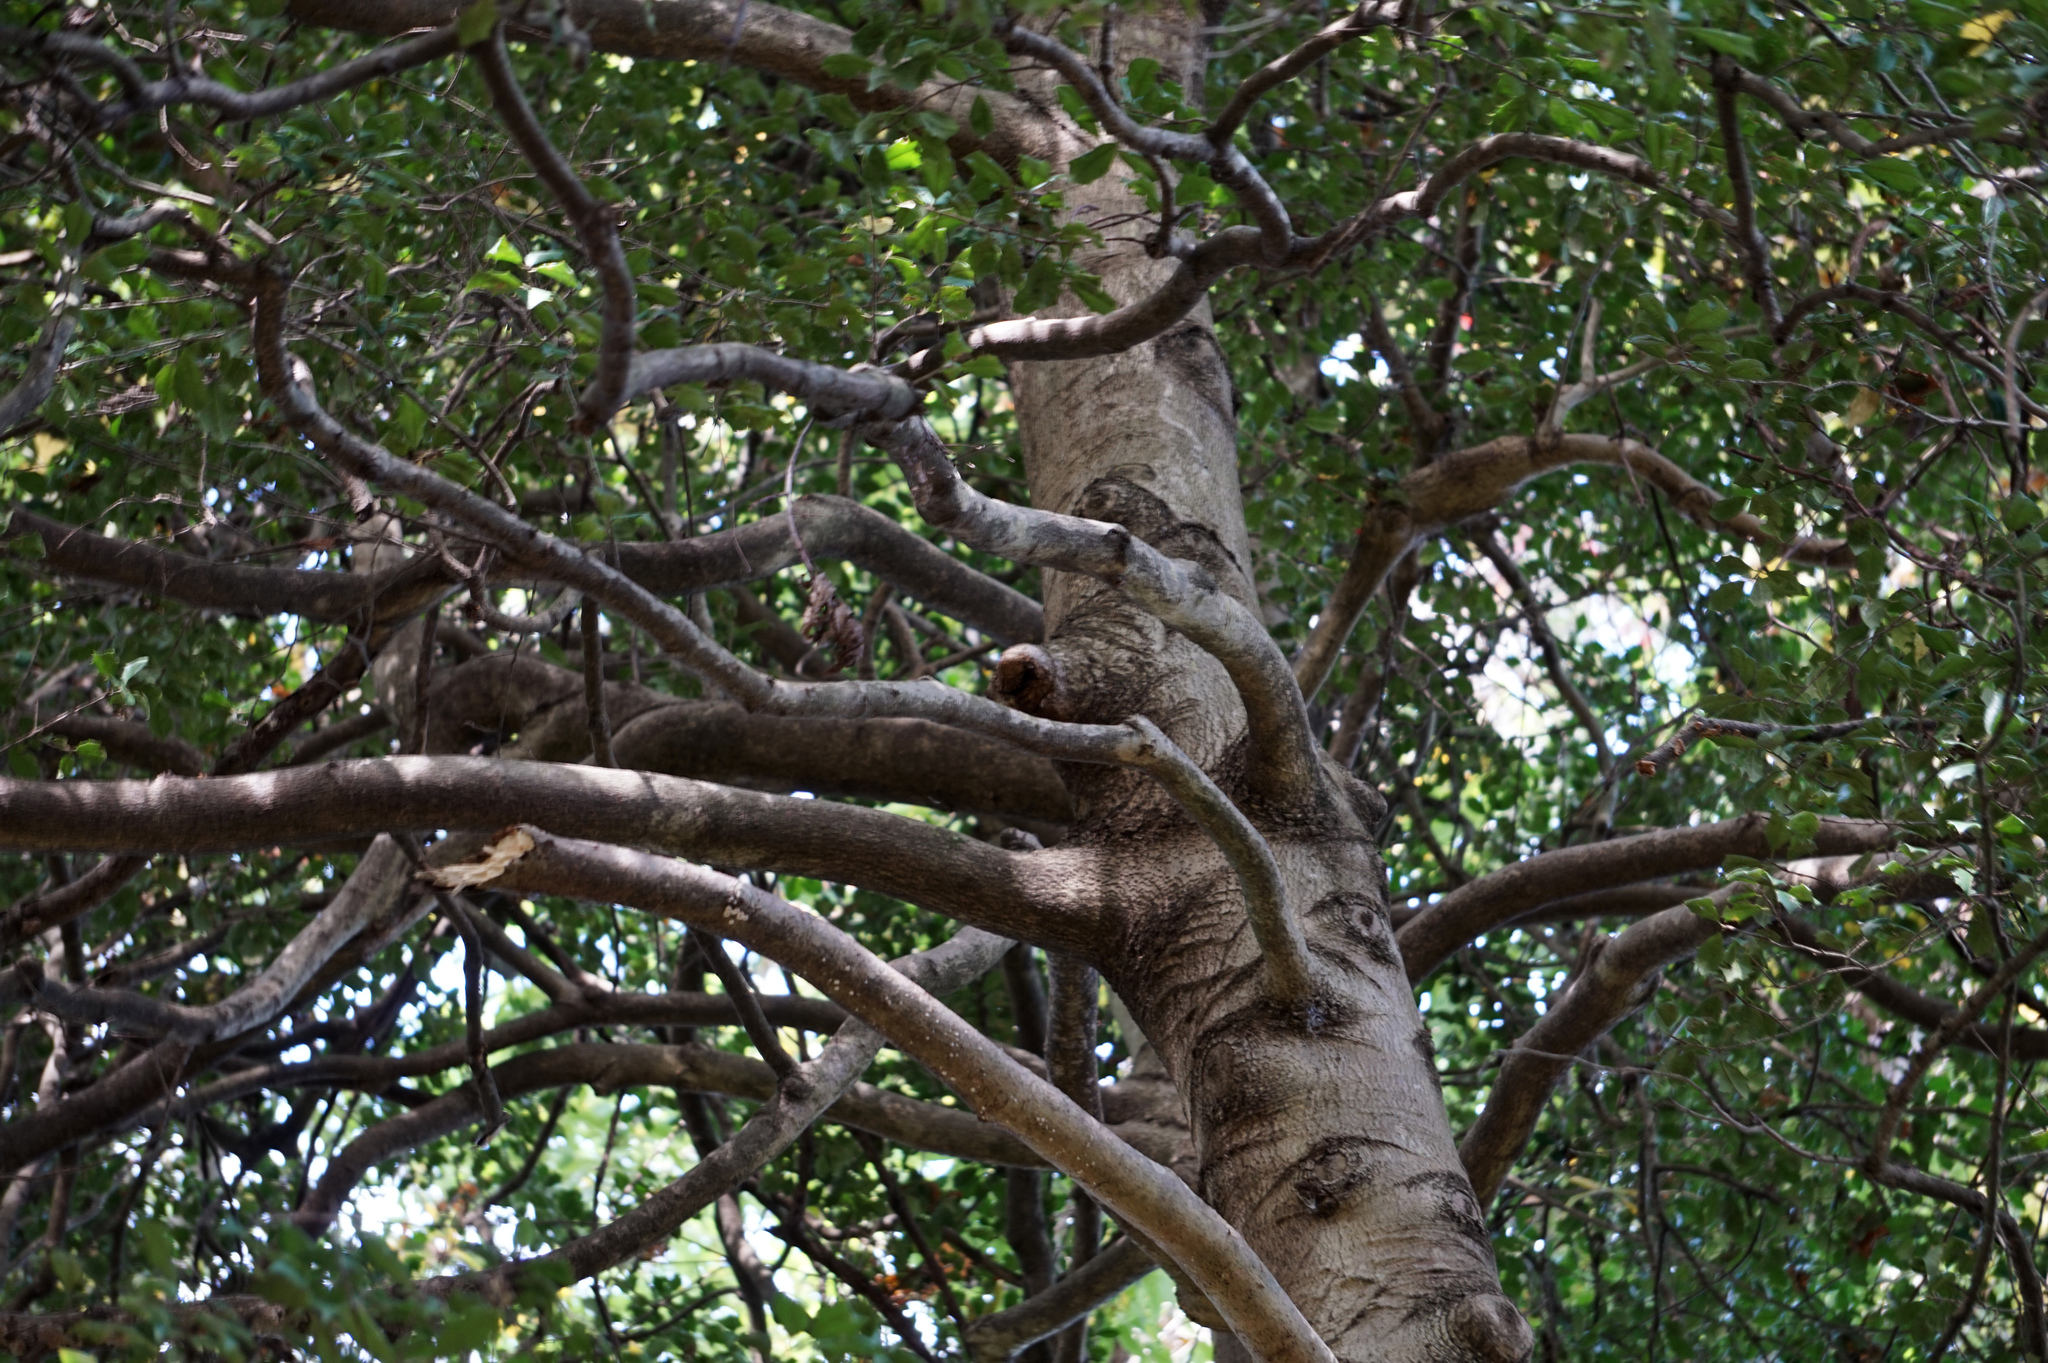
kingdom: Animalia
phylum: Arthropoda
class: Arachnida
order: Araneae
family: Araneidae
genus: Gasteracantha
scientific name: Gasteracantha cancriformis
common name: Orb weavers
